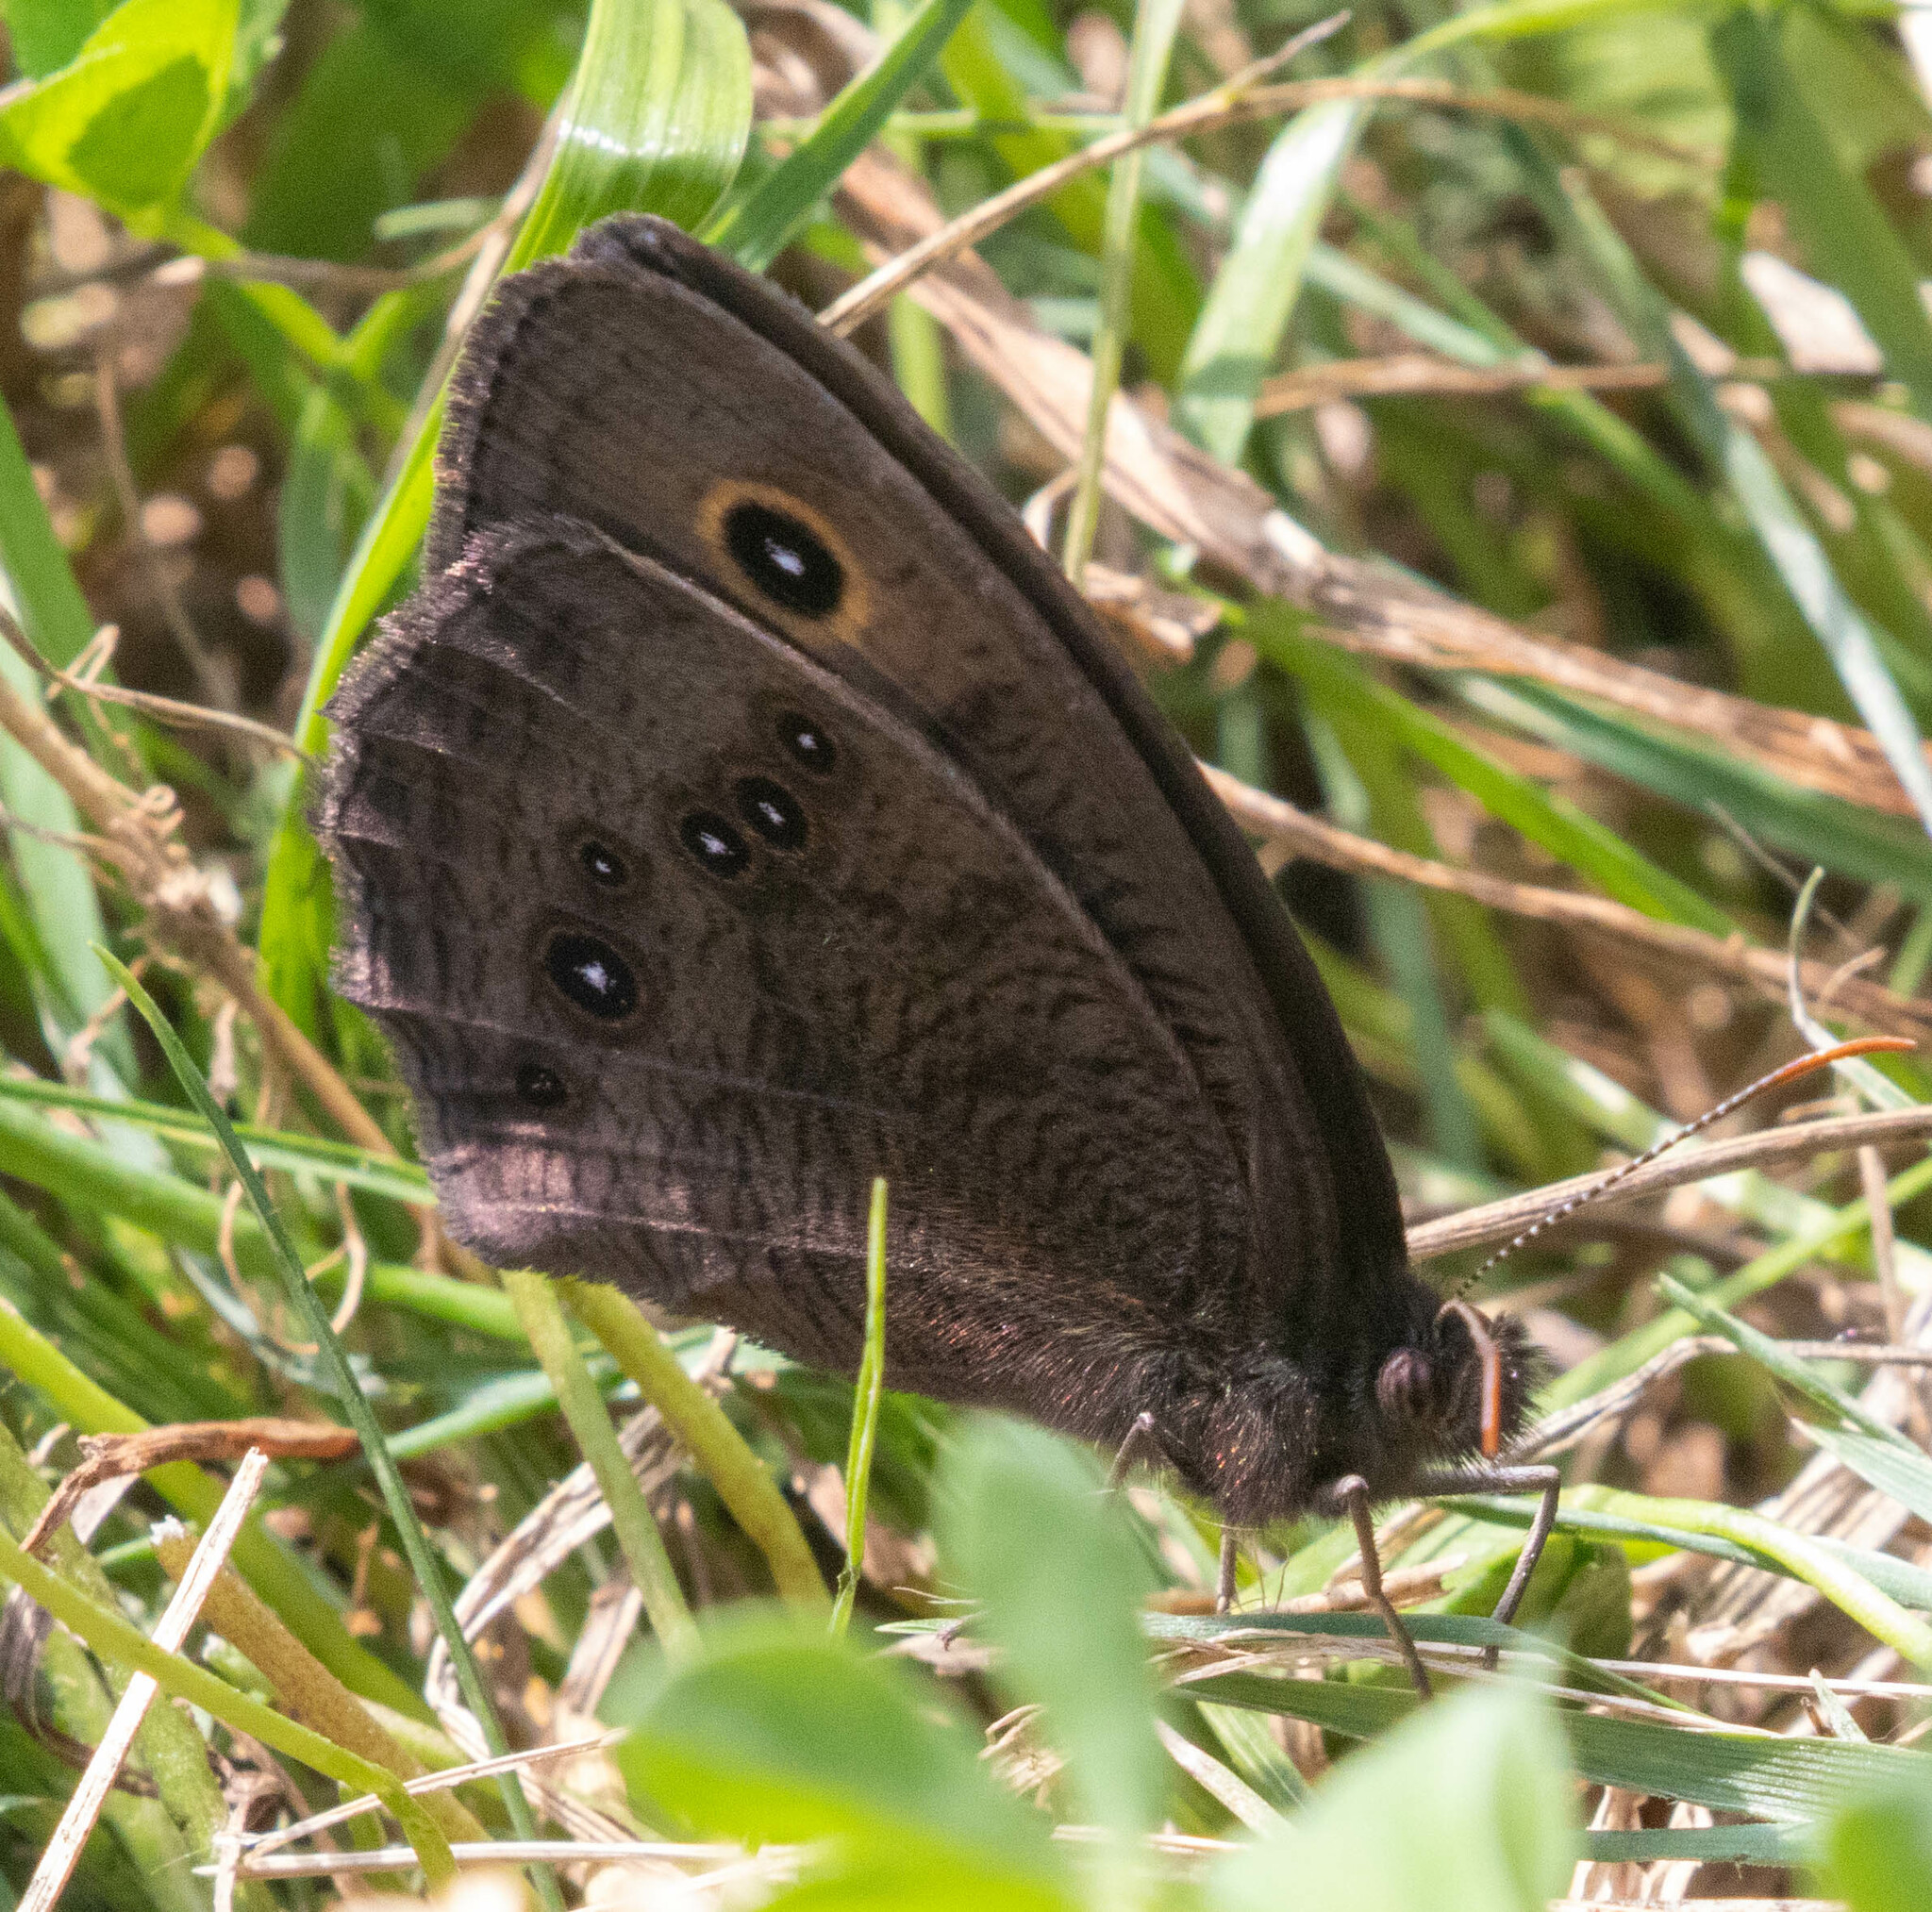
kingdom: Animalia
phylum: Arthropoda
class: Insecta
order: Lepidoptera
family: Nymphalidae
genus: Cercyonis
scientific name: Cercyonis pegala
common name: Common wood-nymph
